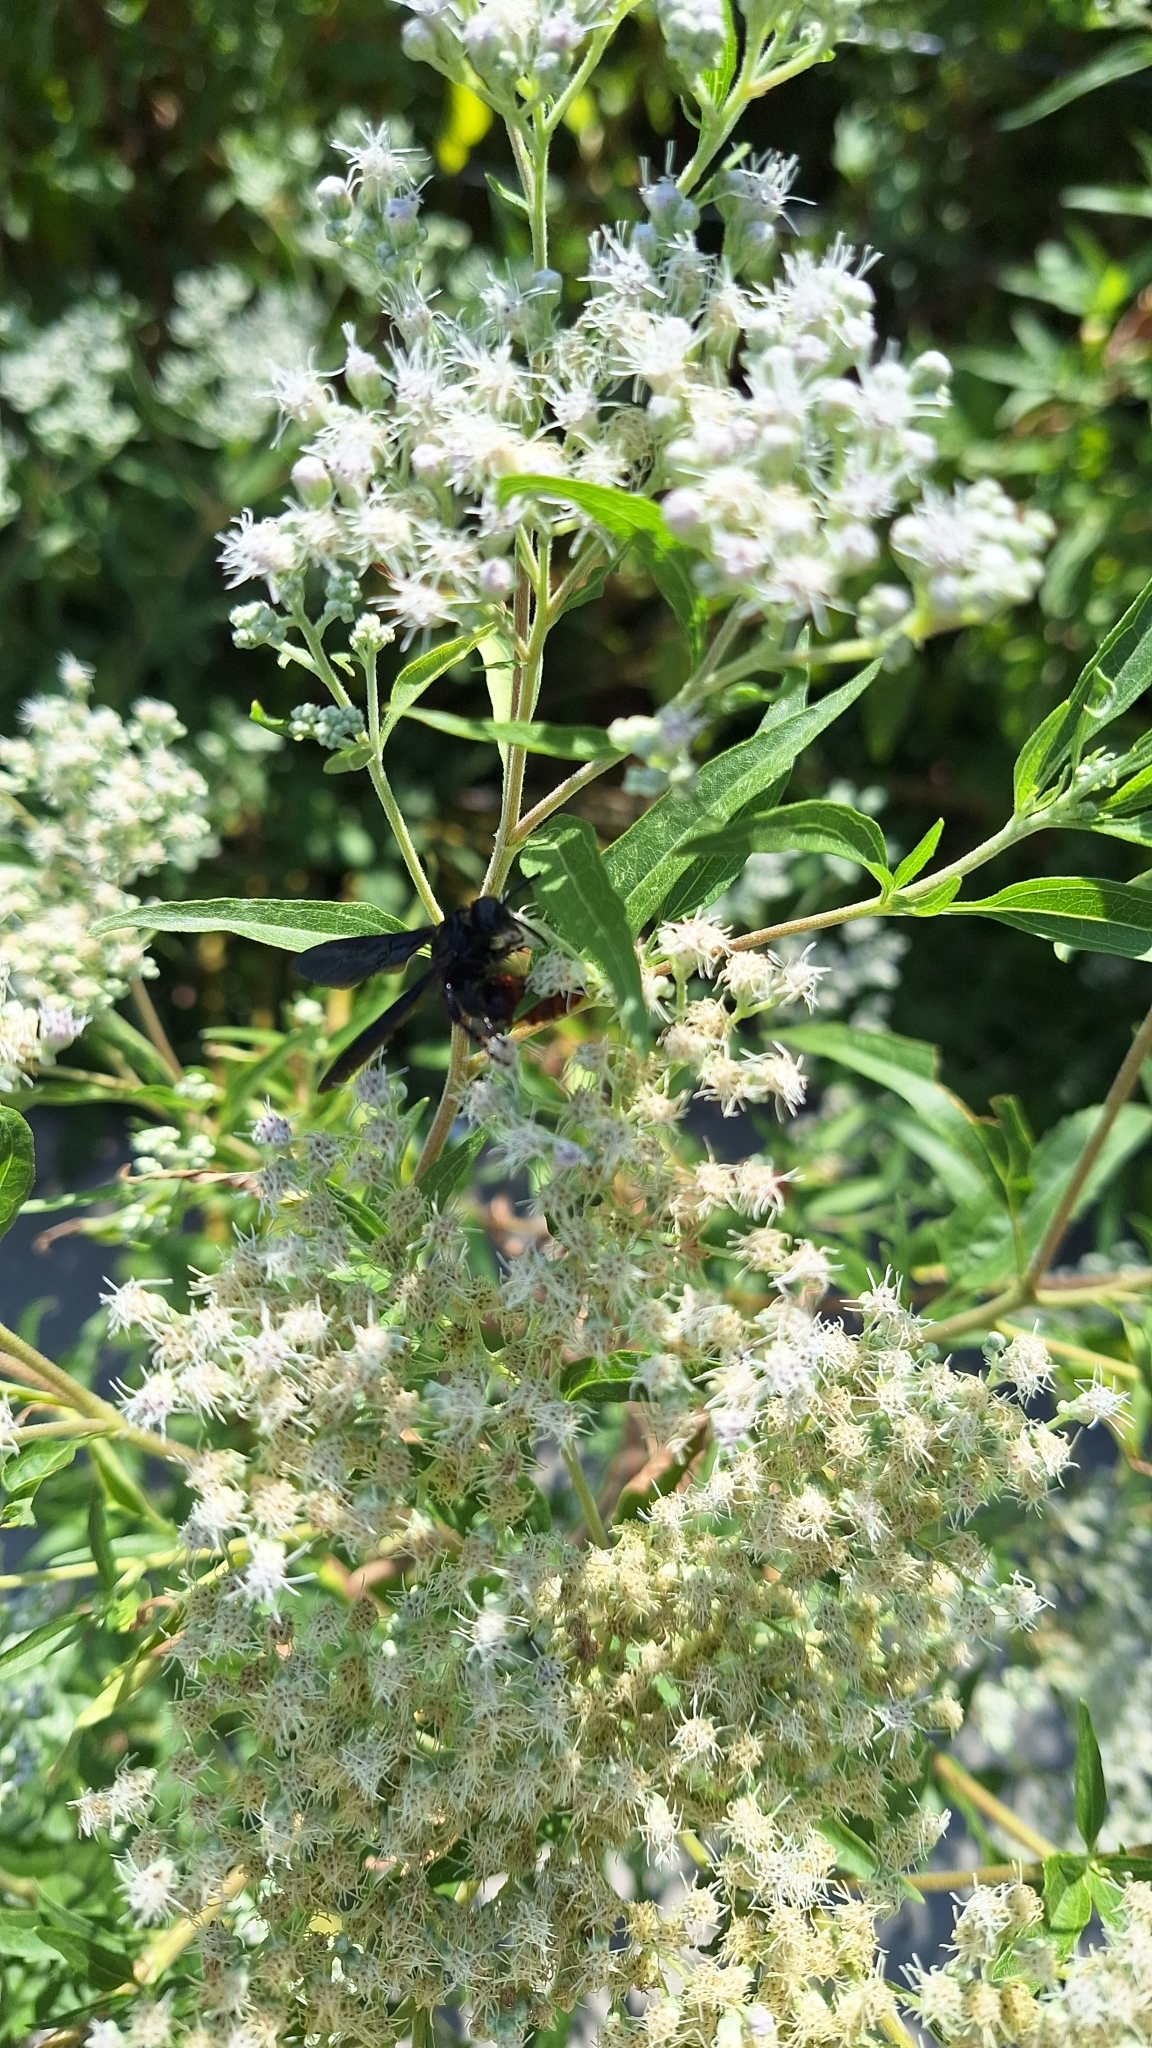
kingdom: Animalia
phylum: Arthropoda
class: Insecta
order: Hymenoptera
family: Scoliidae
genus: Scolia
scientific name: Scolia dubia
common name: Blue-winged scoliid wasp
